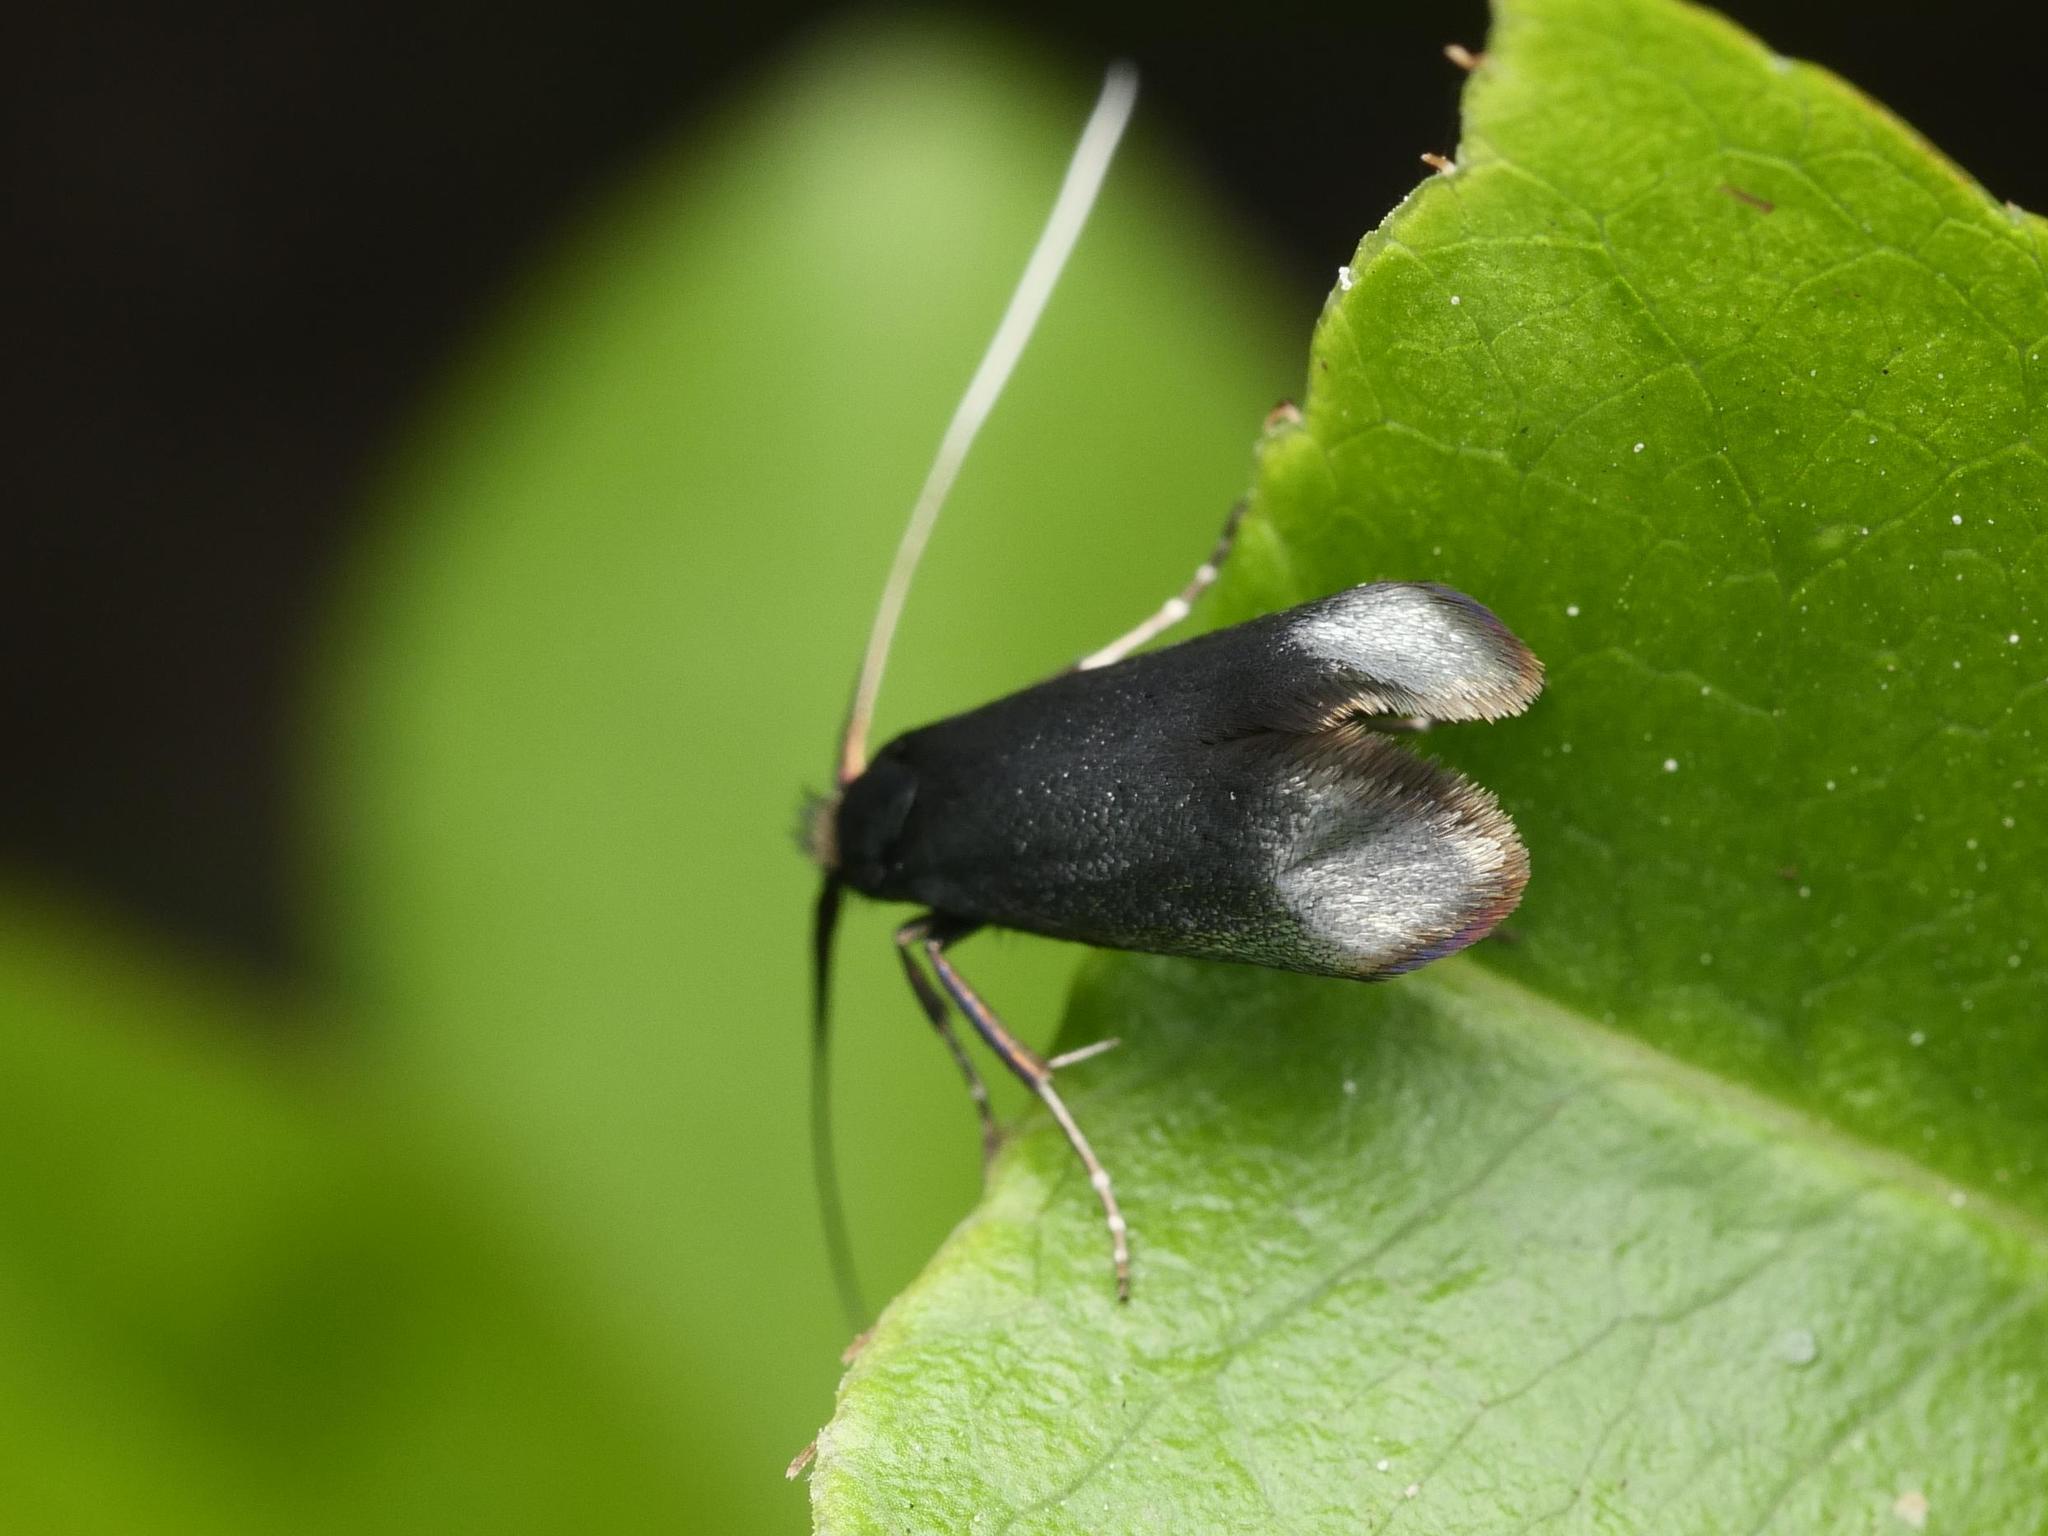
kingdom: Animalia
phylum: Arthropoda
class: Insecta
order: Lepidoptera
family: Adelidae
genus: Adela
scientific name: Adela viridella
